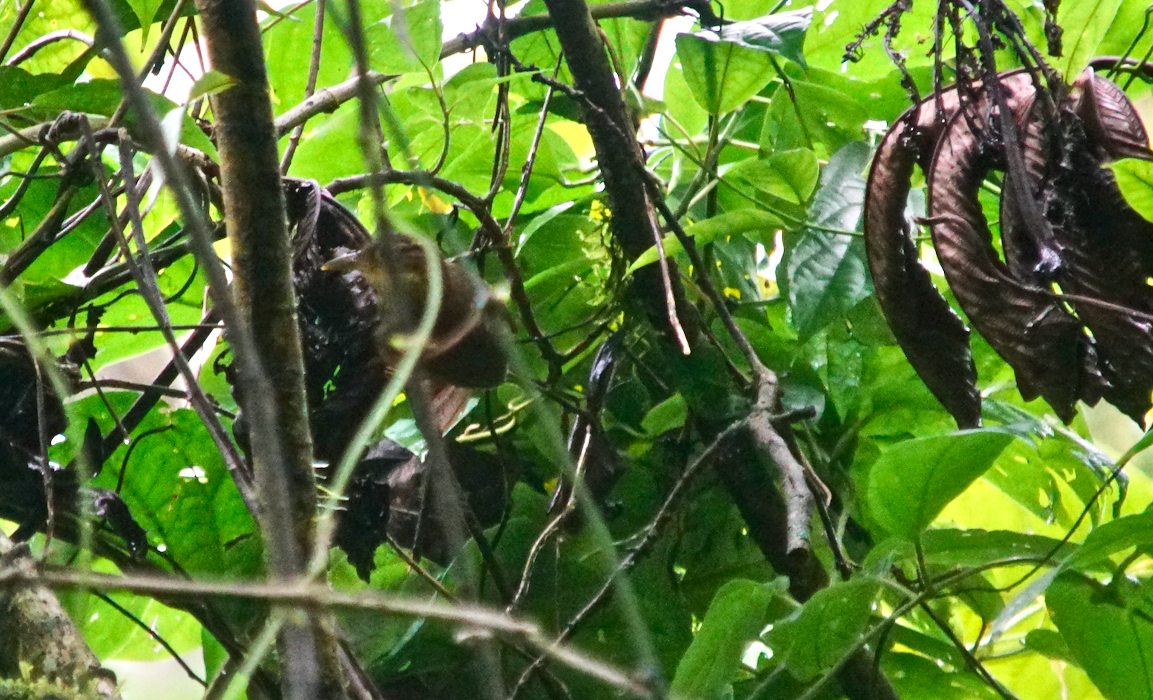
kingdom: Animalia
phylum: Chordata
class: Aves
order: Passeriformes
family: Furnariidae
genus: Automolus
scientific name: Automolus ochrolaemus
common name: Buff-throated foliage-gleaner
